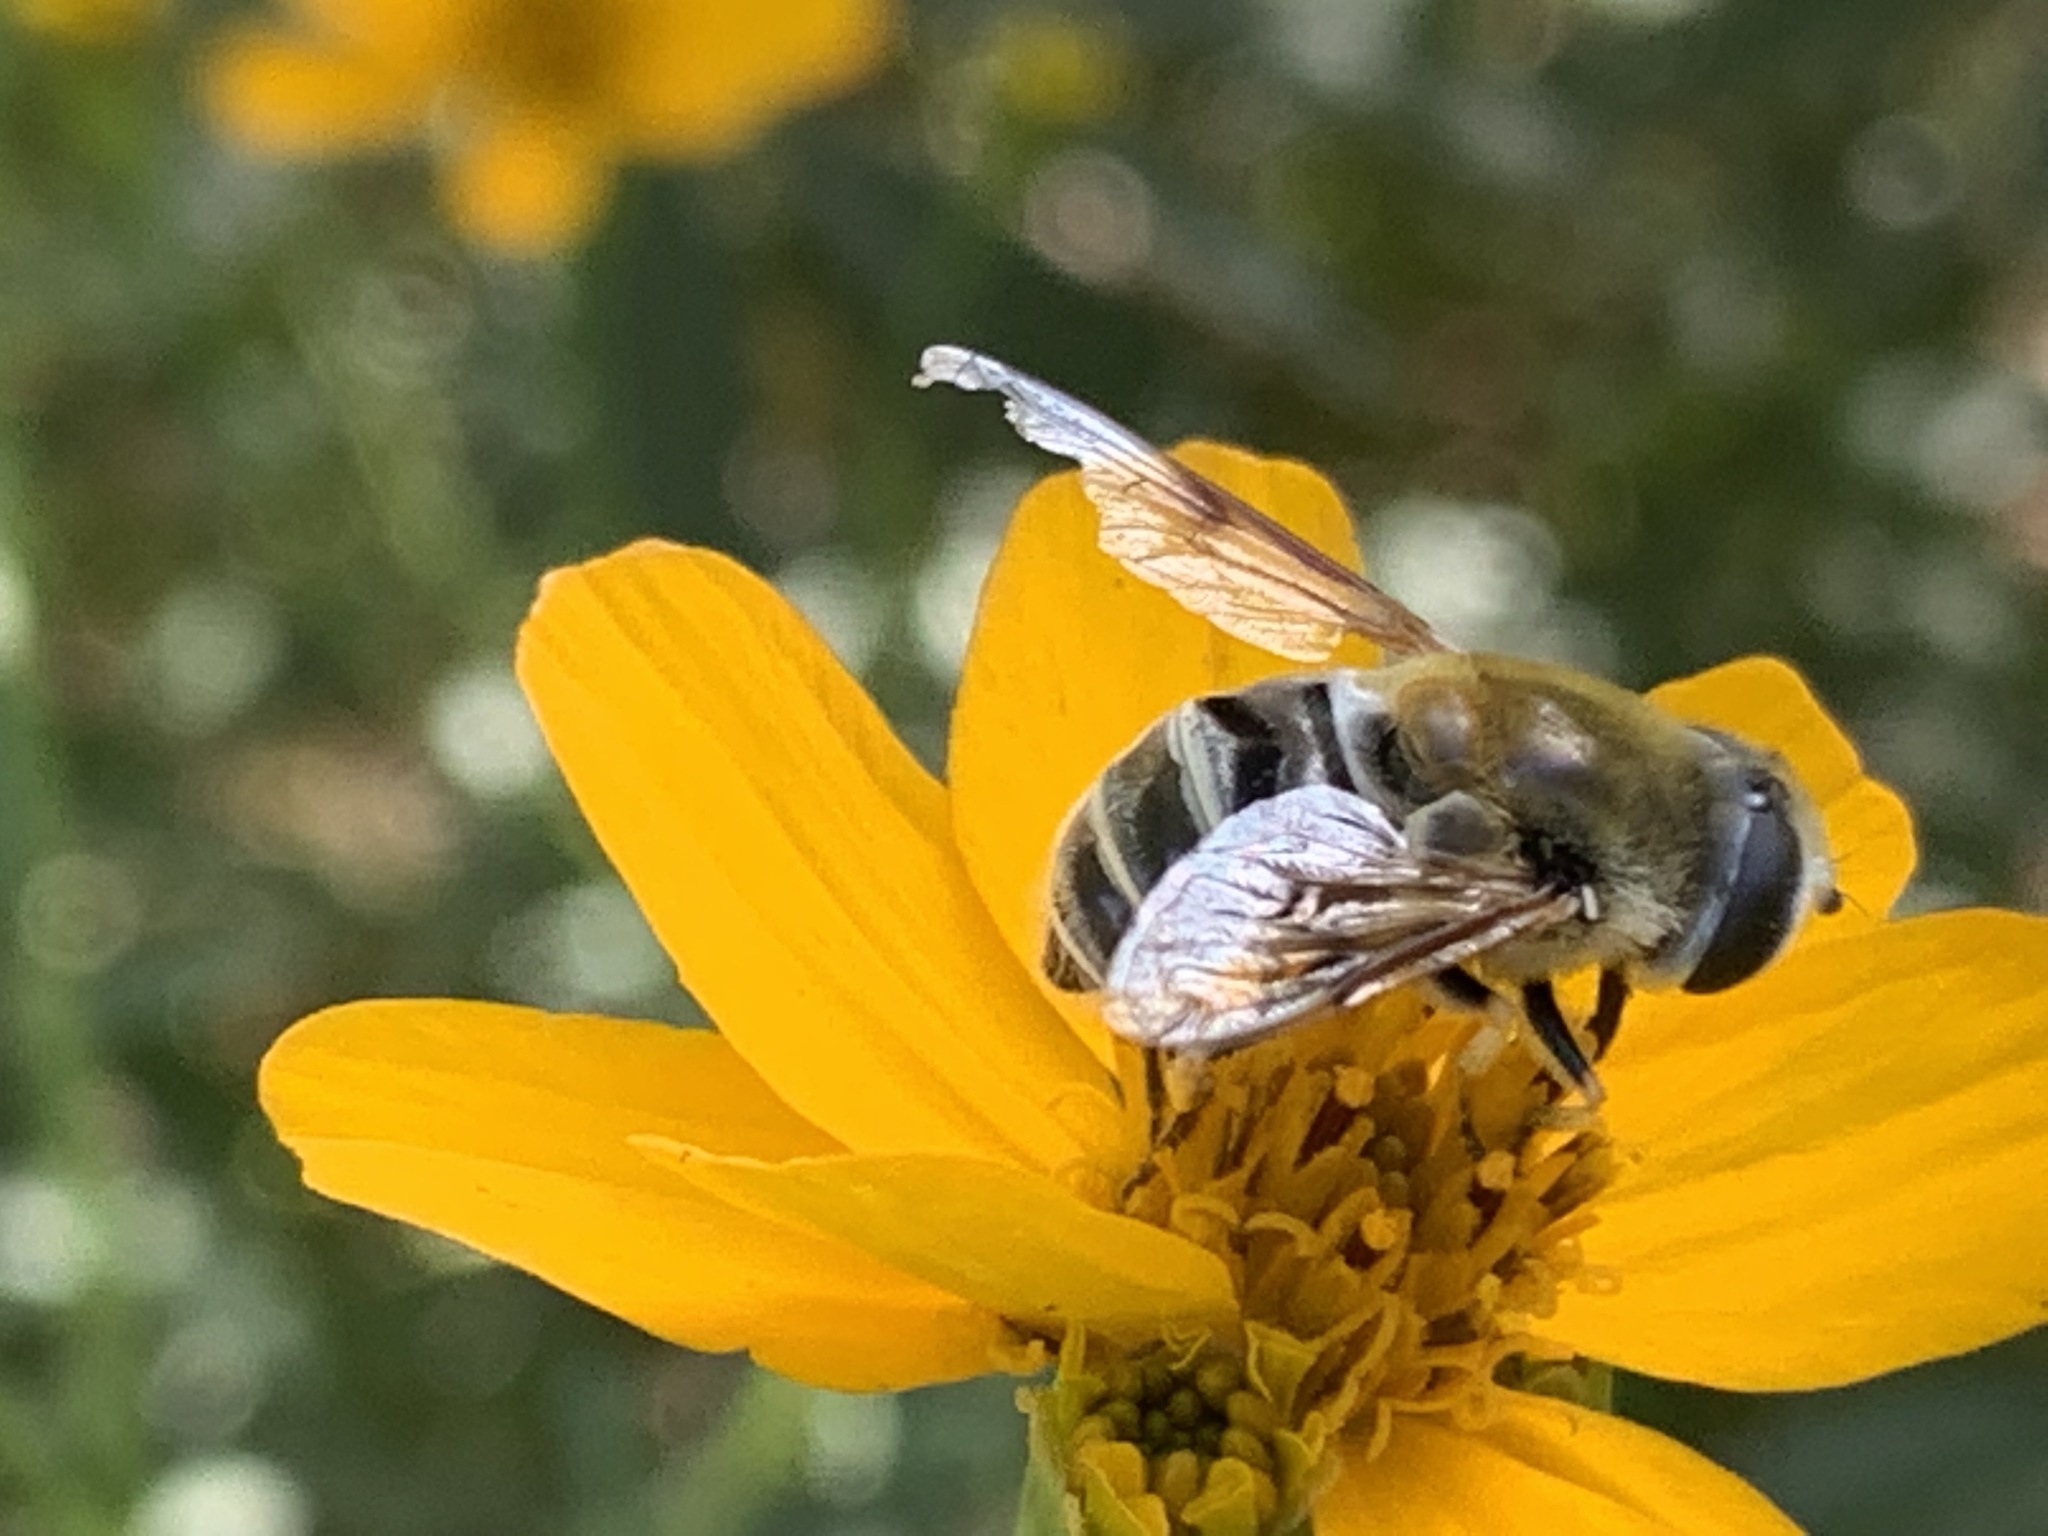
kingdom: Animalia
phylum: Arthropoda
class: Insecta
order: Diptera
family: Syrphidae
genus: Eristalis
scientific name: Eristalis stipator
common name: Yellow-shouldered drone fly
